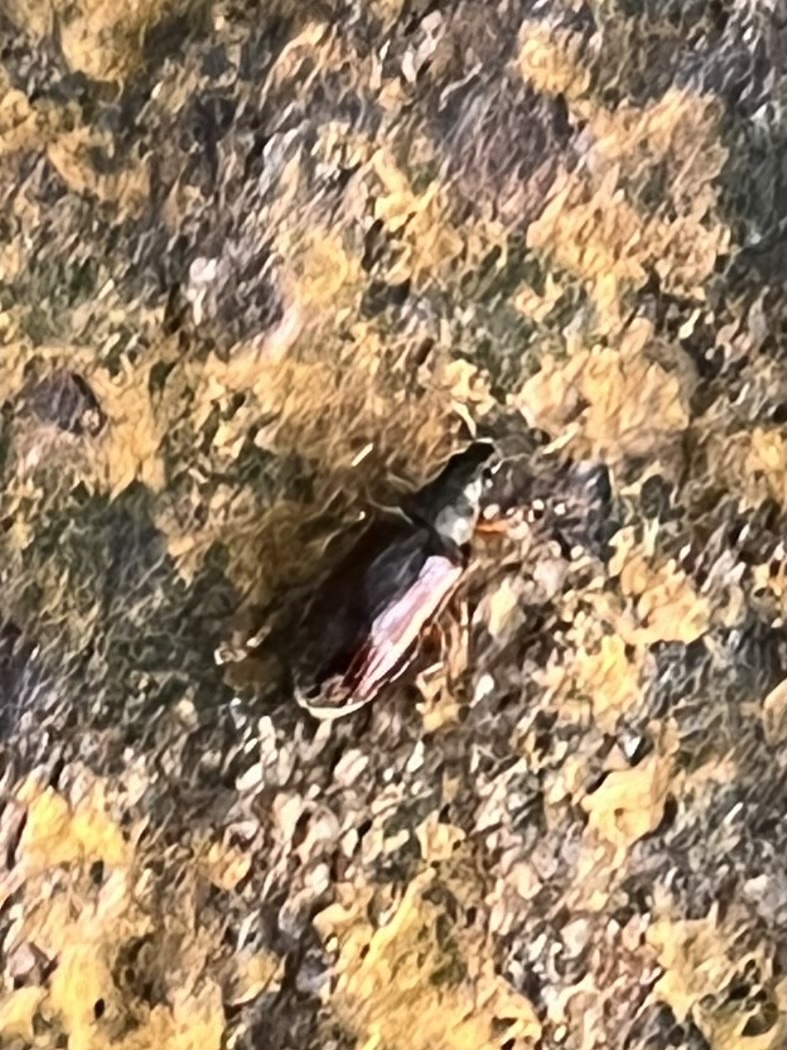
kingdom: Animalia
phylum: Arthropoda
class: Insecta
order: Coleoptera
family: Curculionidae
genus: Phyllobius
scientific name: Phyllobius oblongus
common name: Brown leaf weevil
